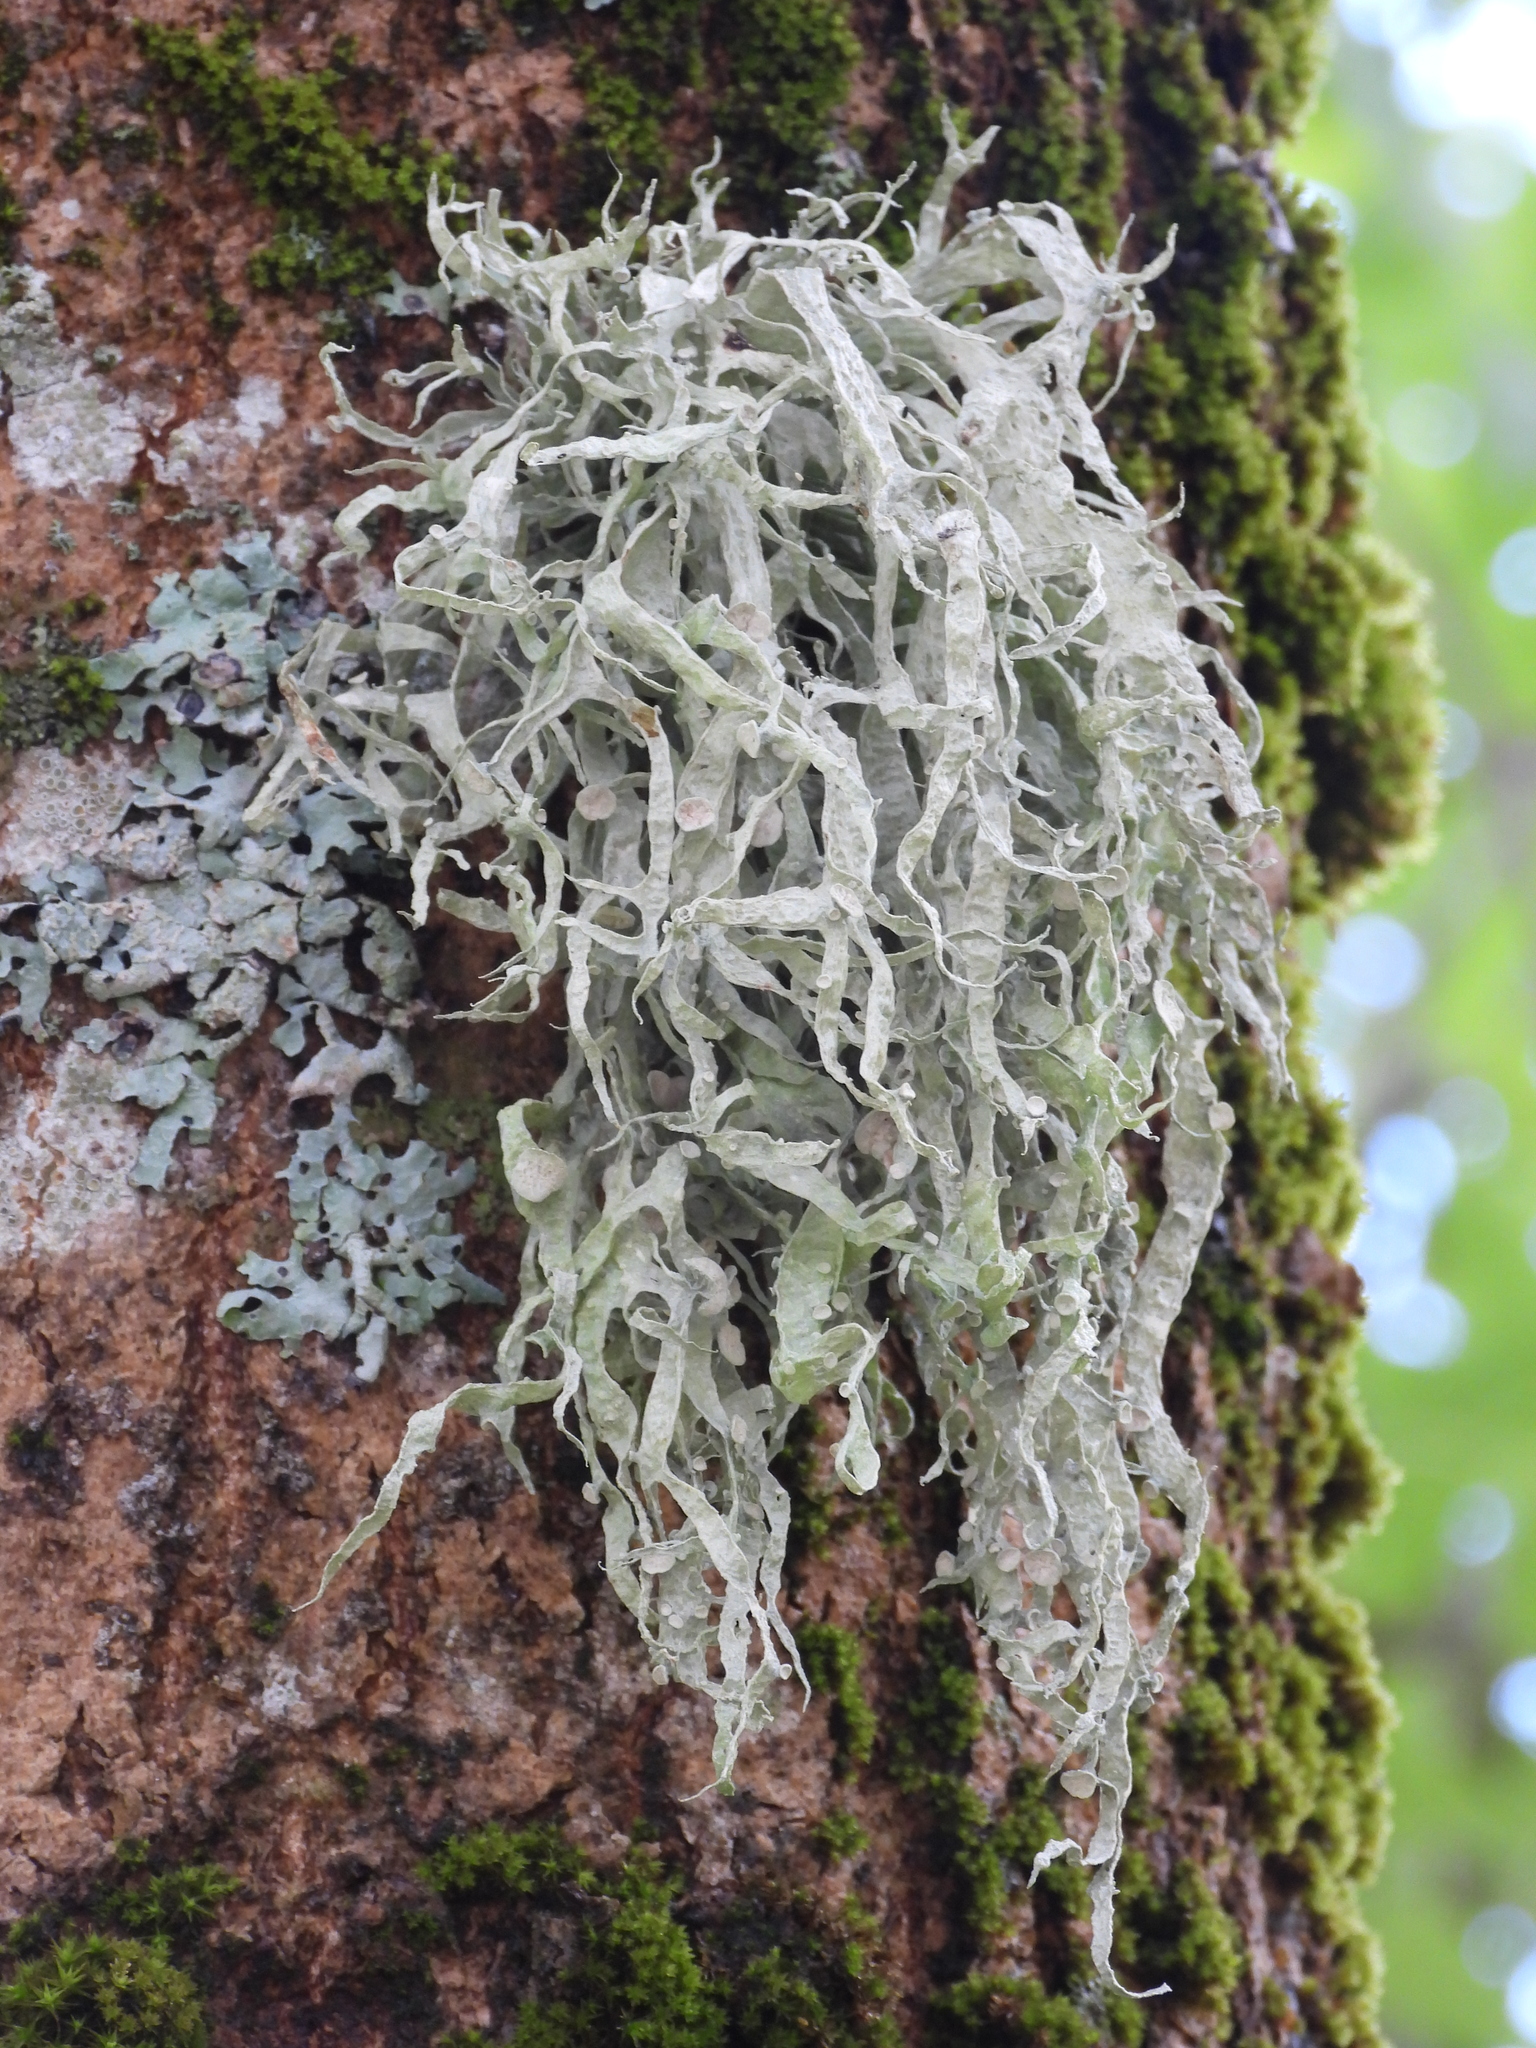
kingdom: Fungi
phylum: Ascomycota
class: Lecanoromycetes
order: Lecanorales
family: Ramalinaceae
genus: Ramalina
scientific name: Ramalina fraxinea
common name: Cartilage lichen
